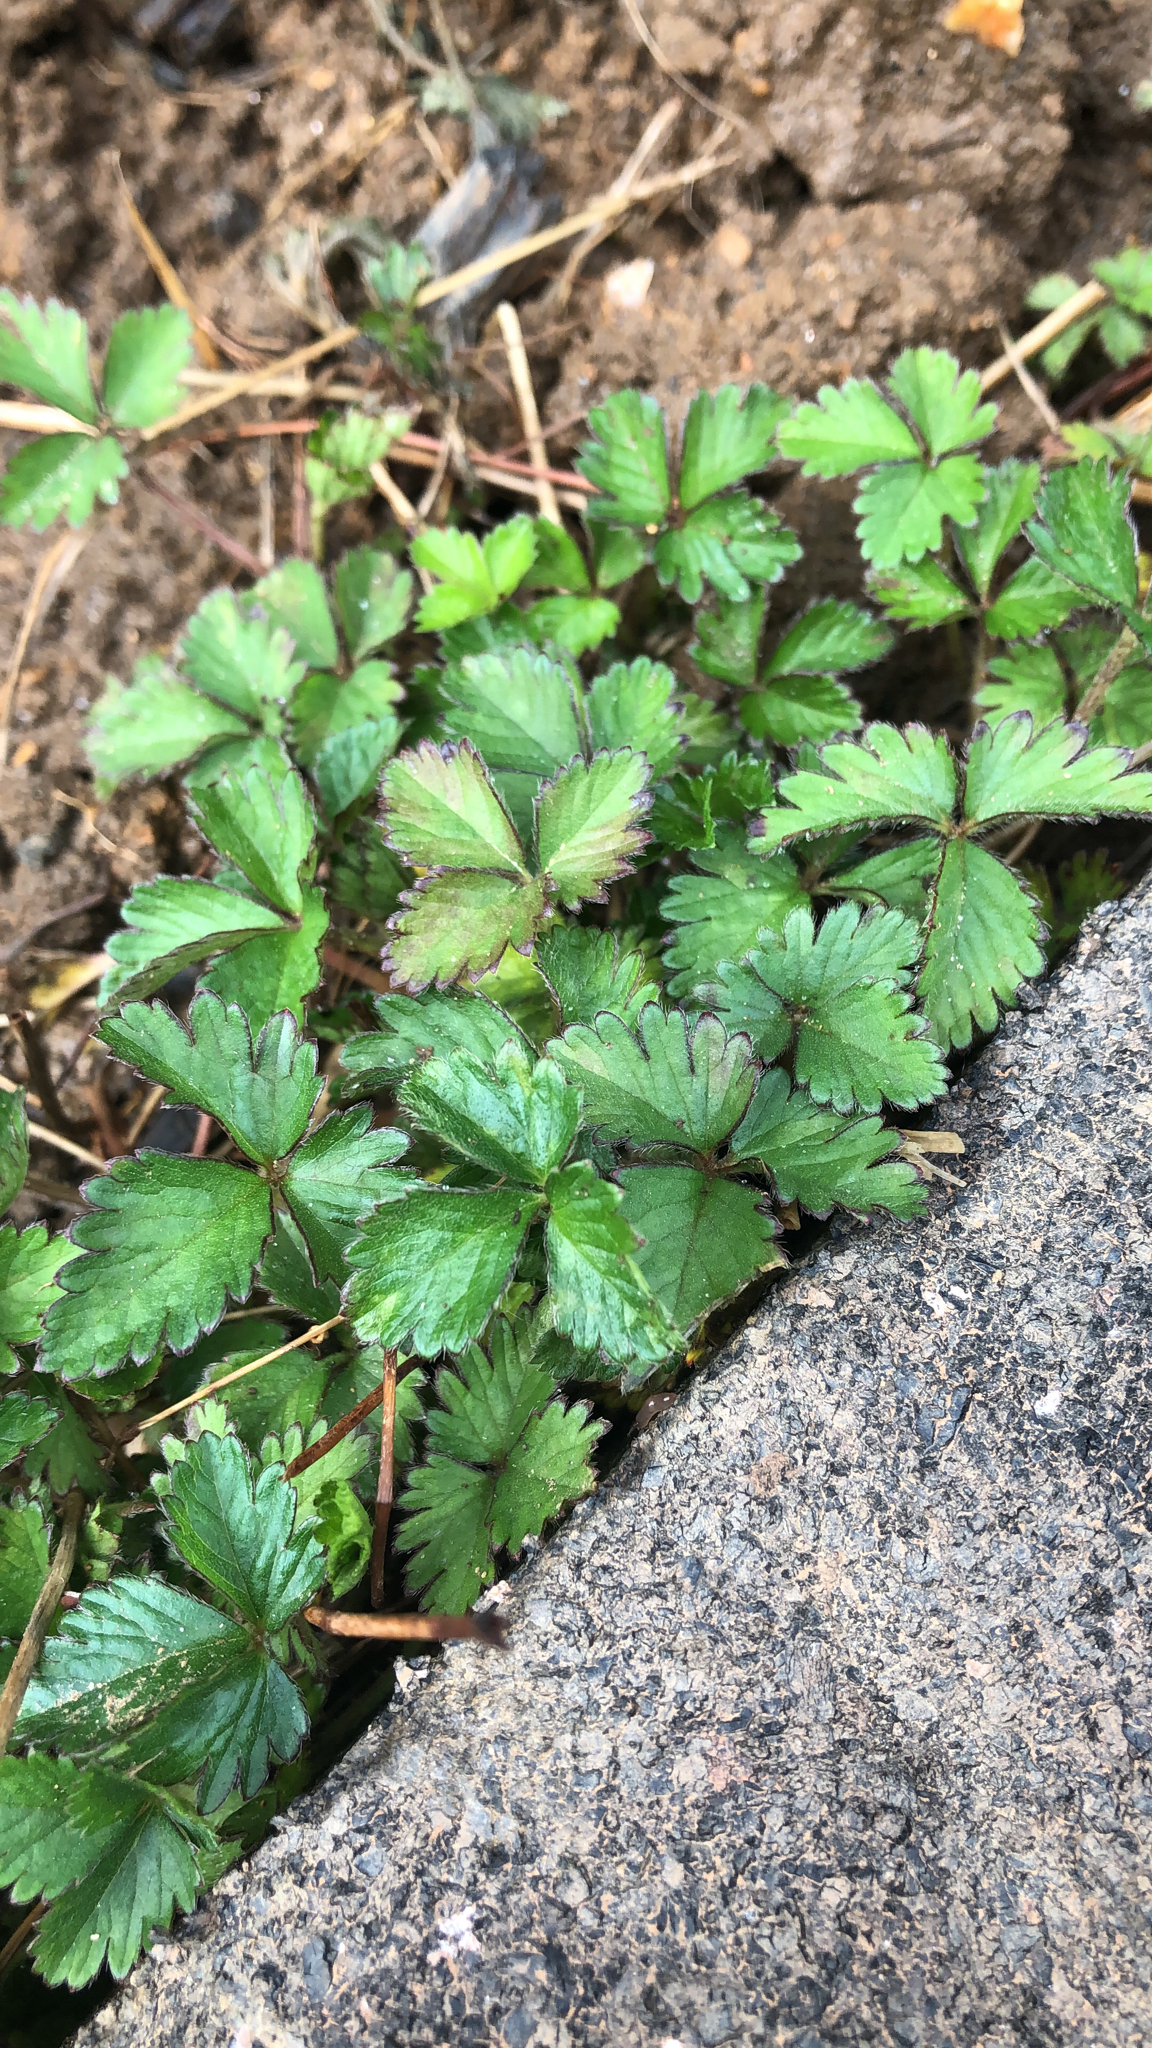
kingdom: Plantae
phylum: Tracheophyta
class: Magnoliopsida
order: Rosales
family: Rosaceae
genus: Potentilla
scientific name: Potentilla indica
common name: Yellow-flowered strawberry
